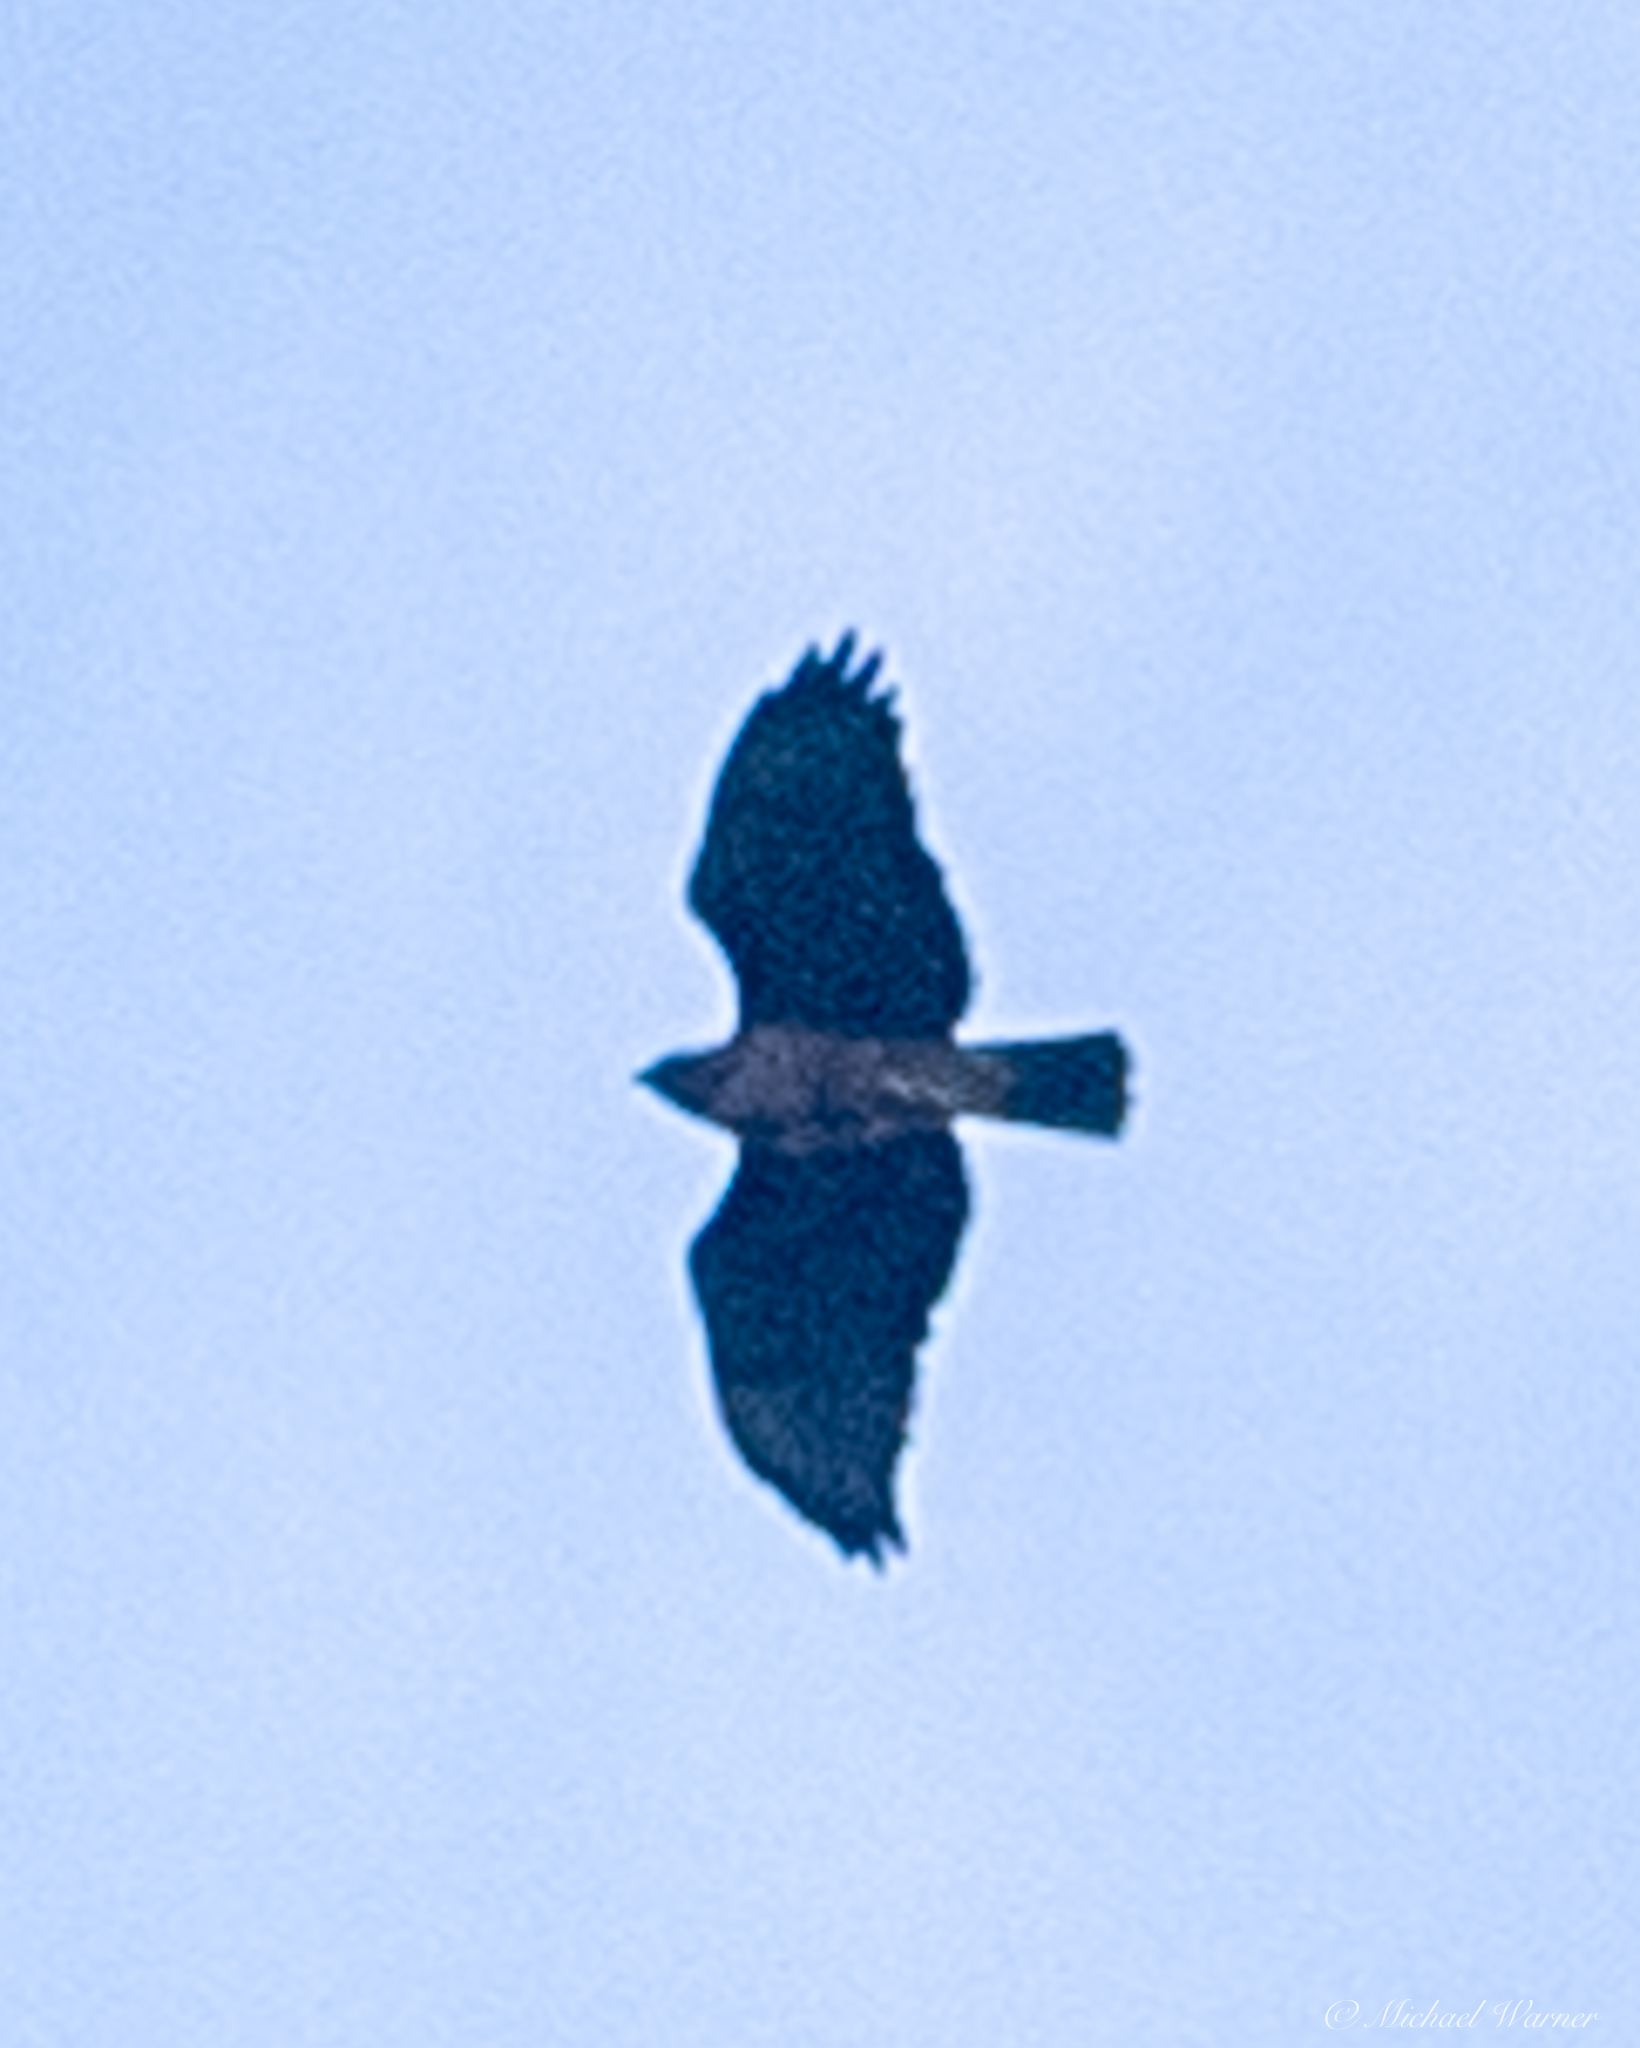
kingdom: Animalia
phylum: Chordata
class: Aves
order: Accipitriformes
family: Accipitridae
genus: Buteo
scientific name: Buteo jamaicensis
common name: Red-tailed hawk
